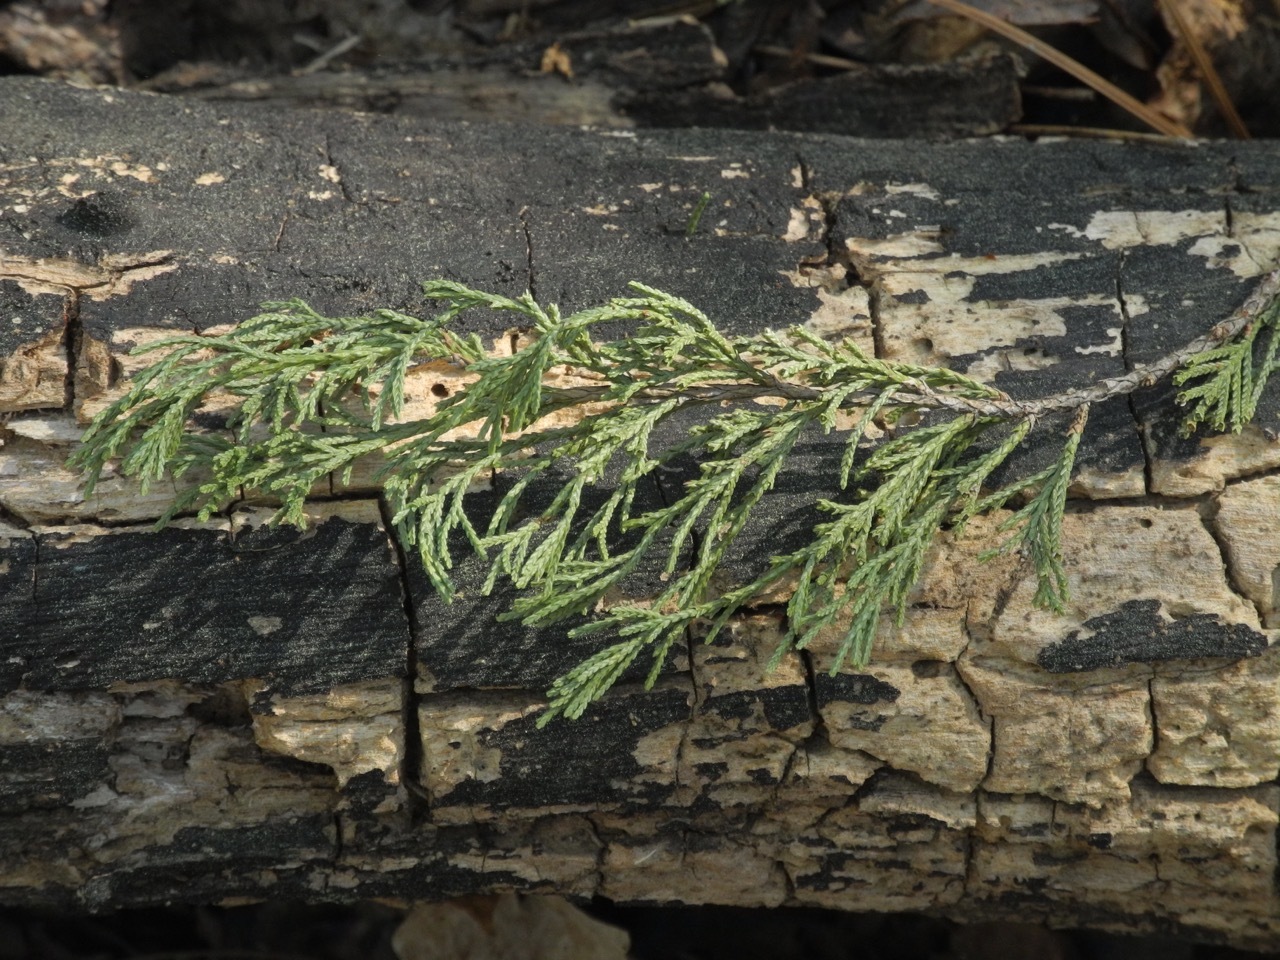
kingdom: Plantae
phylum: Tracheophyta
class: Pinopsida
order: Pinales
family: Cupressaceae
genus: Juniperus
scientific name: Juniperus virginiana
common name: Red juniper
